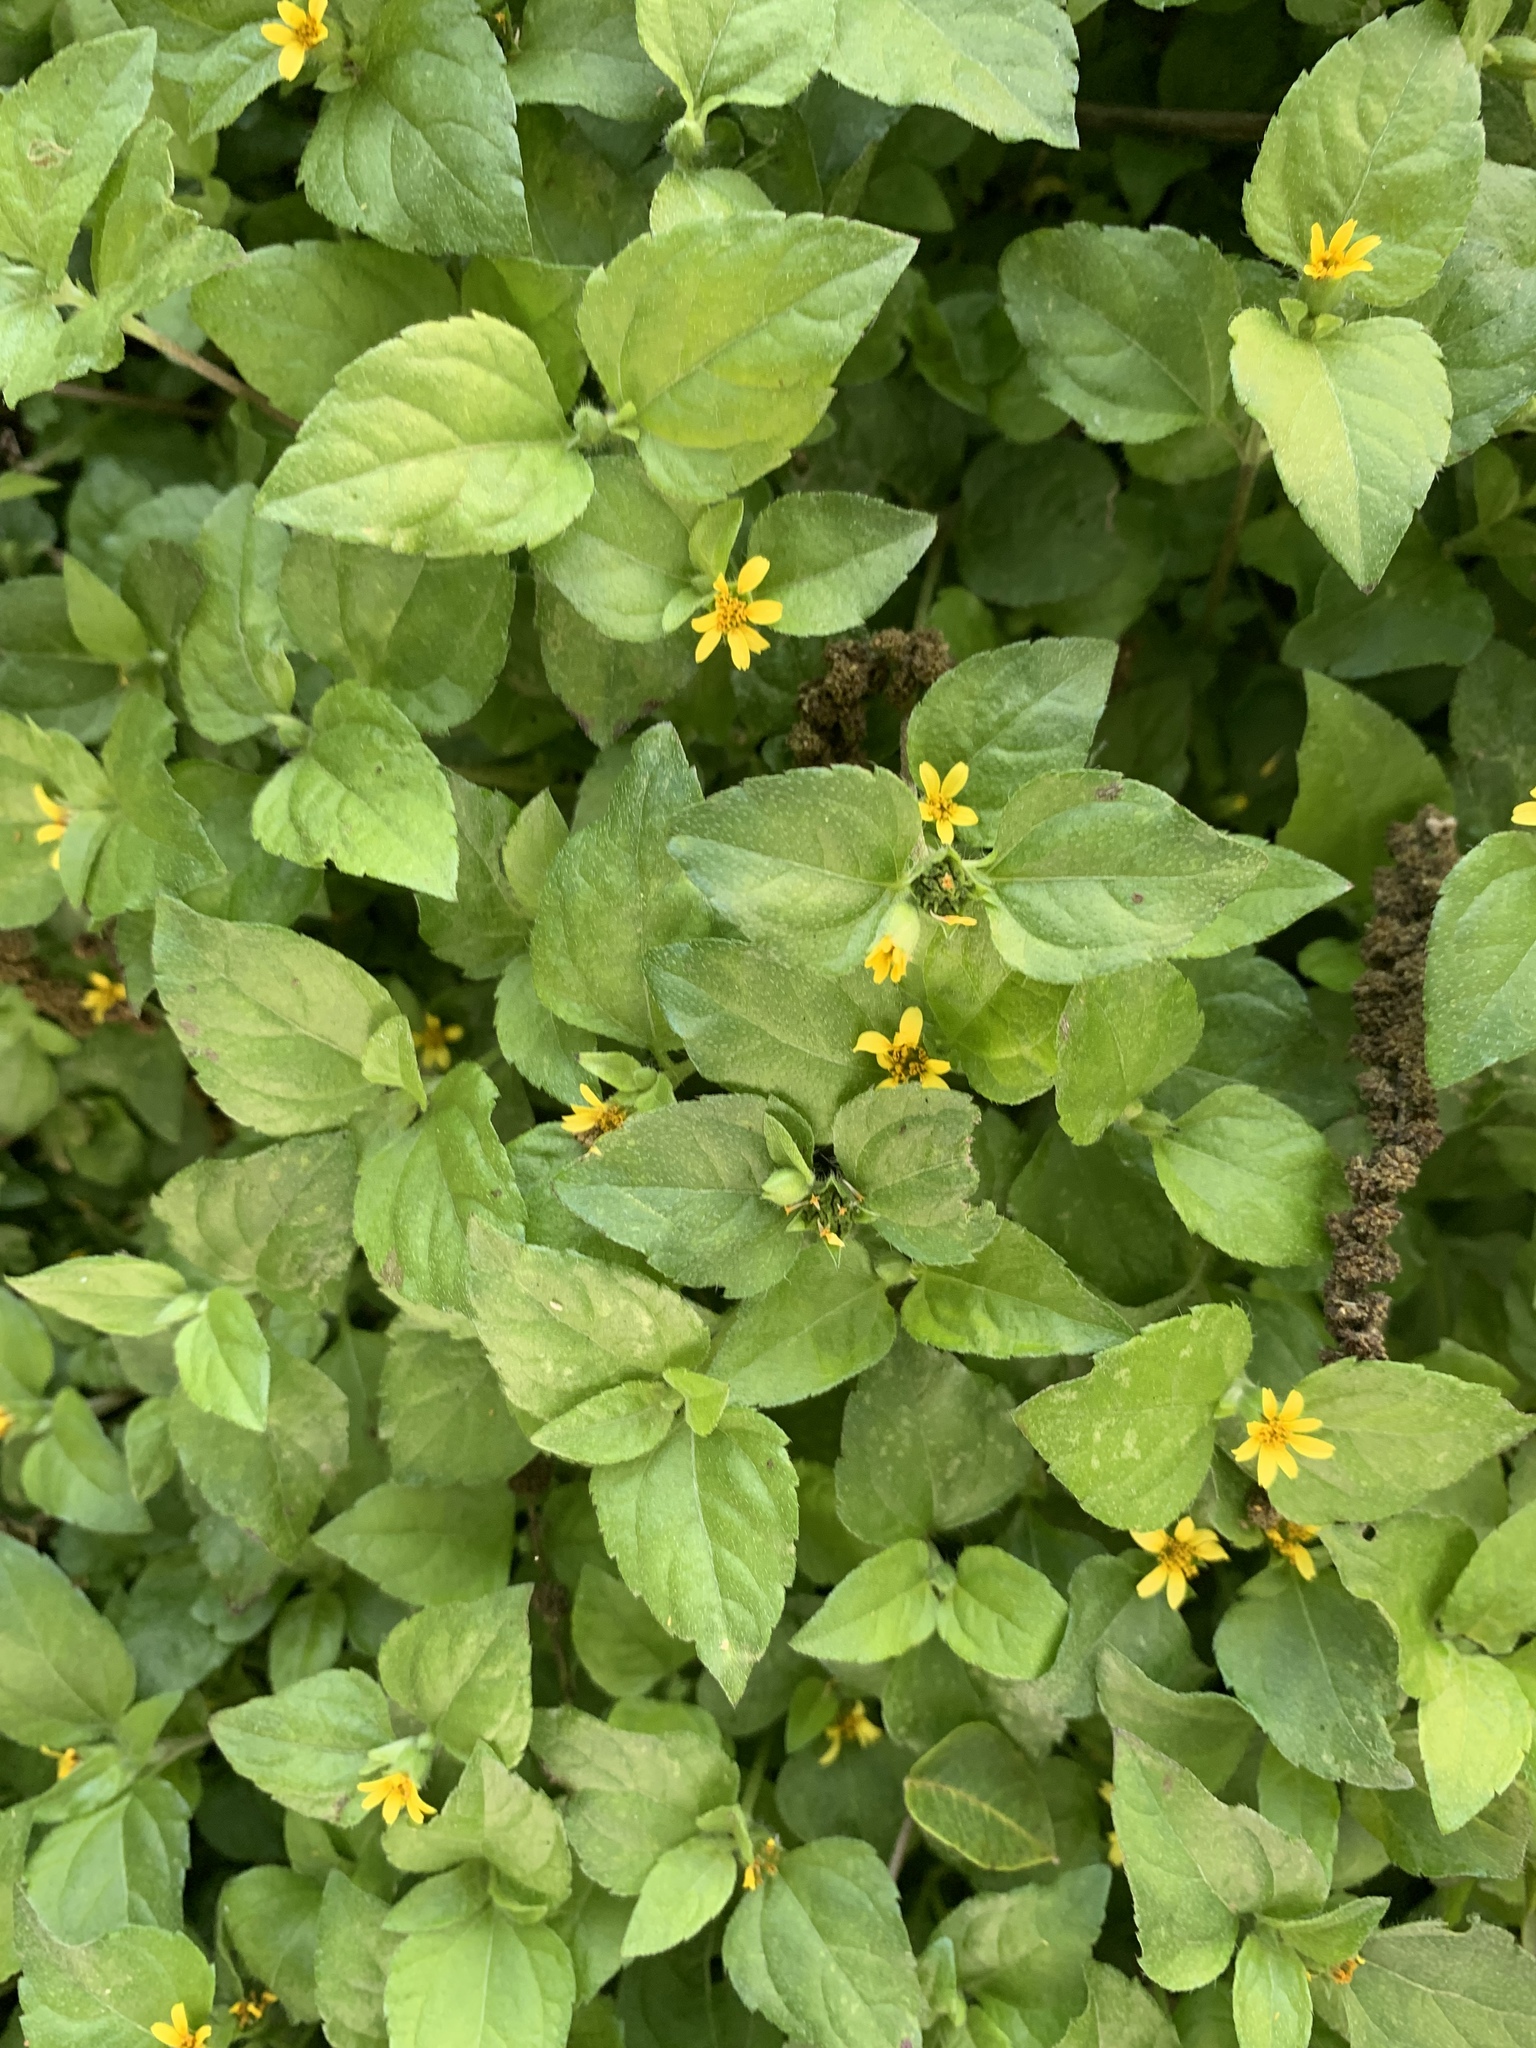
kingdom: Plantae
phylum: Tracheophyta
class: Magnoliopsida
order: Asterales
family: Asteraceae
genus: Calyptocarpus
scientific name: Calyptocarpus vialis
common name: Straggler daisy
